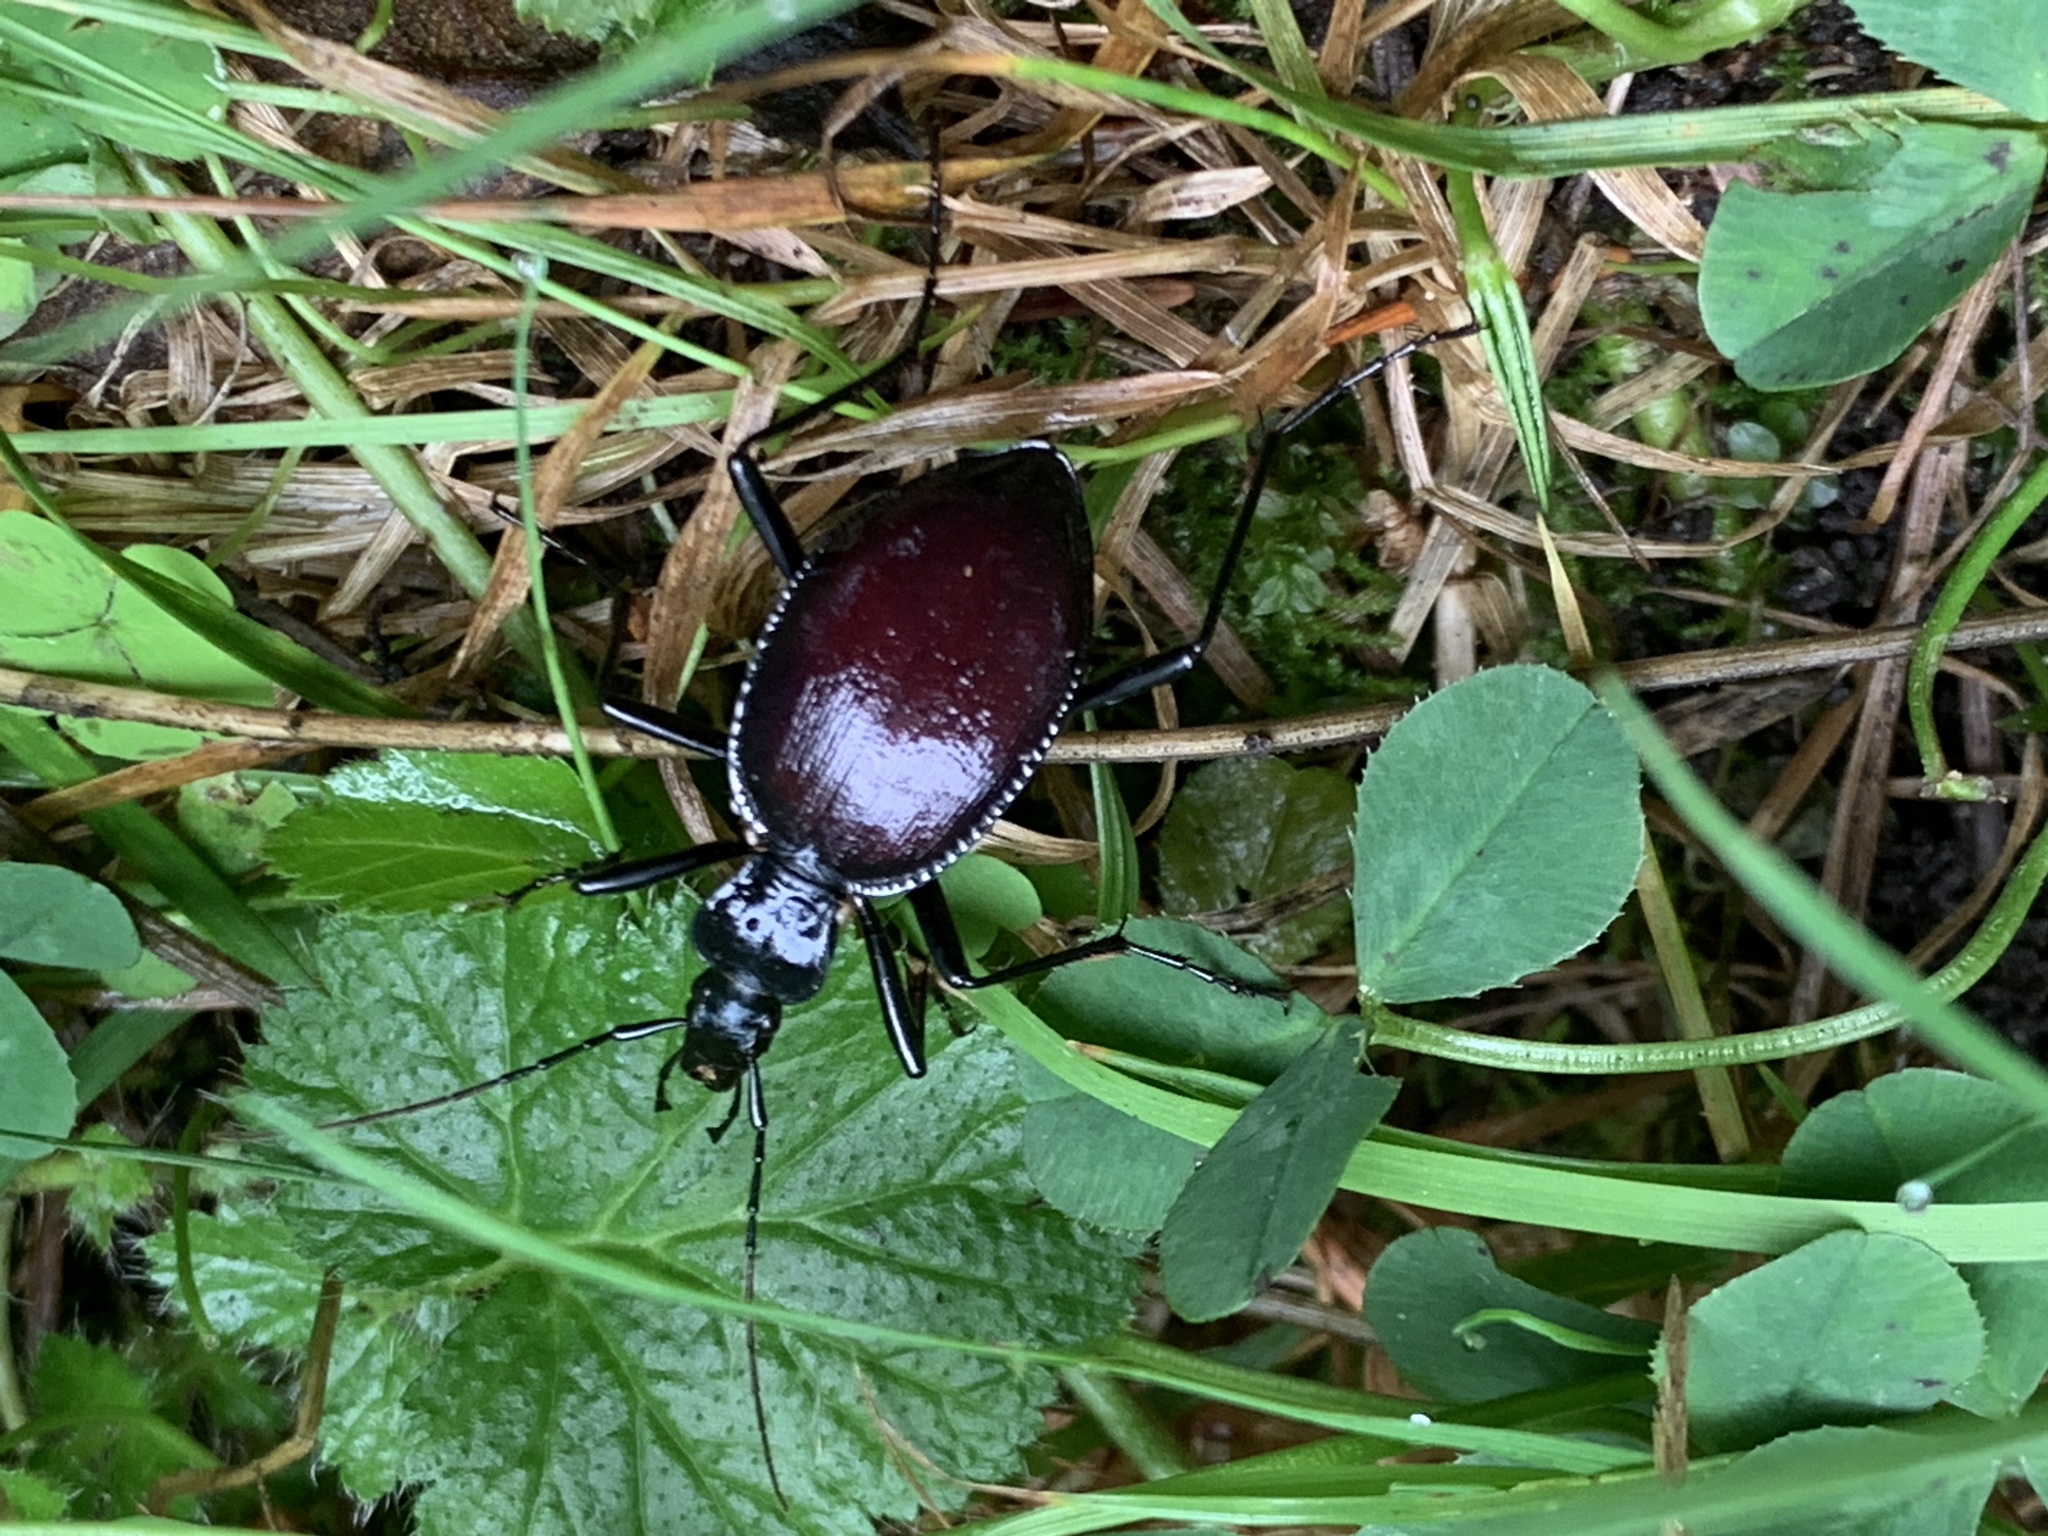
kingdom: Animalia
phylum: Arthropoda
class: Insecta
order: Coleoptera
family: Carabidae
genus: Scaphinotus
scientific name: Scaphinotus angusticollis
